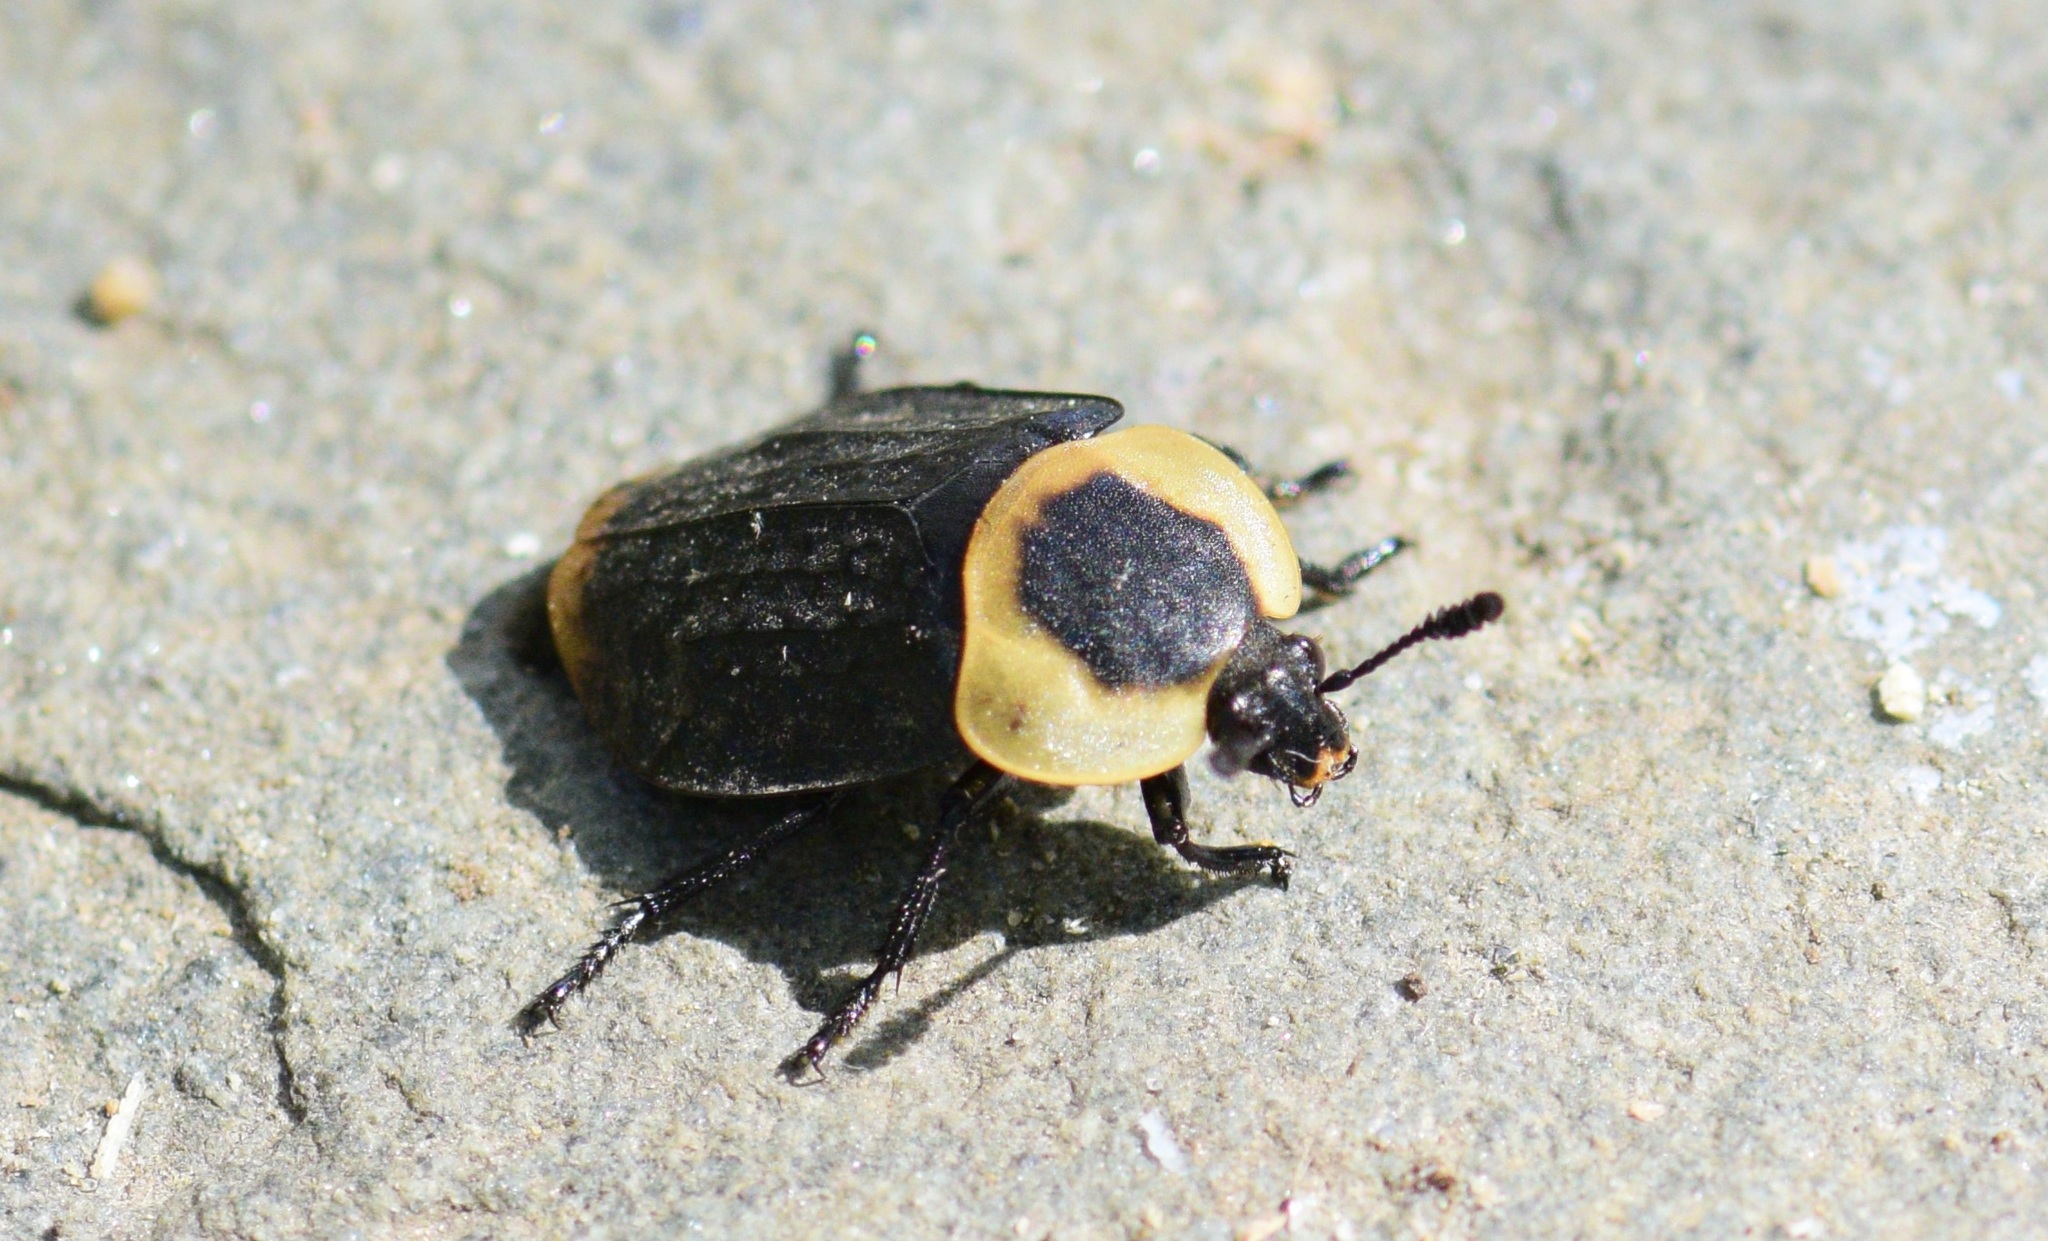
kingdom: Animalia
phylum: Arthropoda
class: Insecta
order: Coleoptera
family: Staphylinidae
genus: Necrophila
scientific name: Necrophila americana
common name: American carrion beetle
